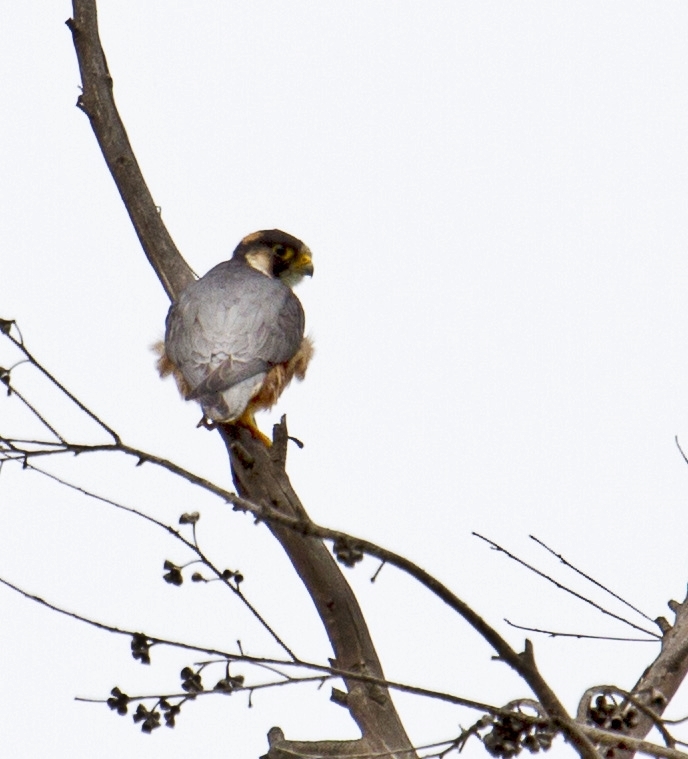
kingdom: Animalia
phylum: Chordata
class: Aves
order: Falconiformes
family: Falconidae
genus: Falco
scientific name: Falco fasciinucha
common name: Taita falcon
